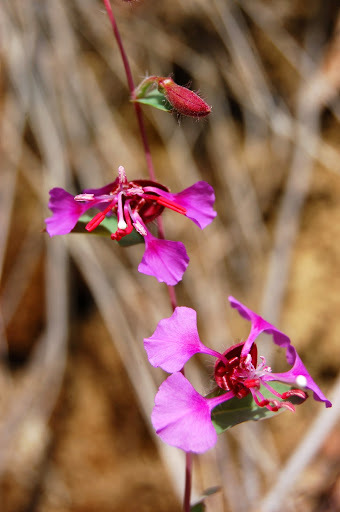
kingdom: Plantae
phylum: Tracheophyta
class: Magnoliopsida
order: Myrtales
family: Onagraceae
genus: Clarkia
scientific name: Clarkia unguiculata
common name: Clarkia
